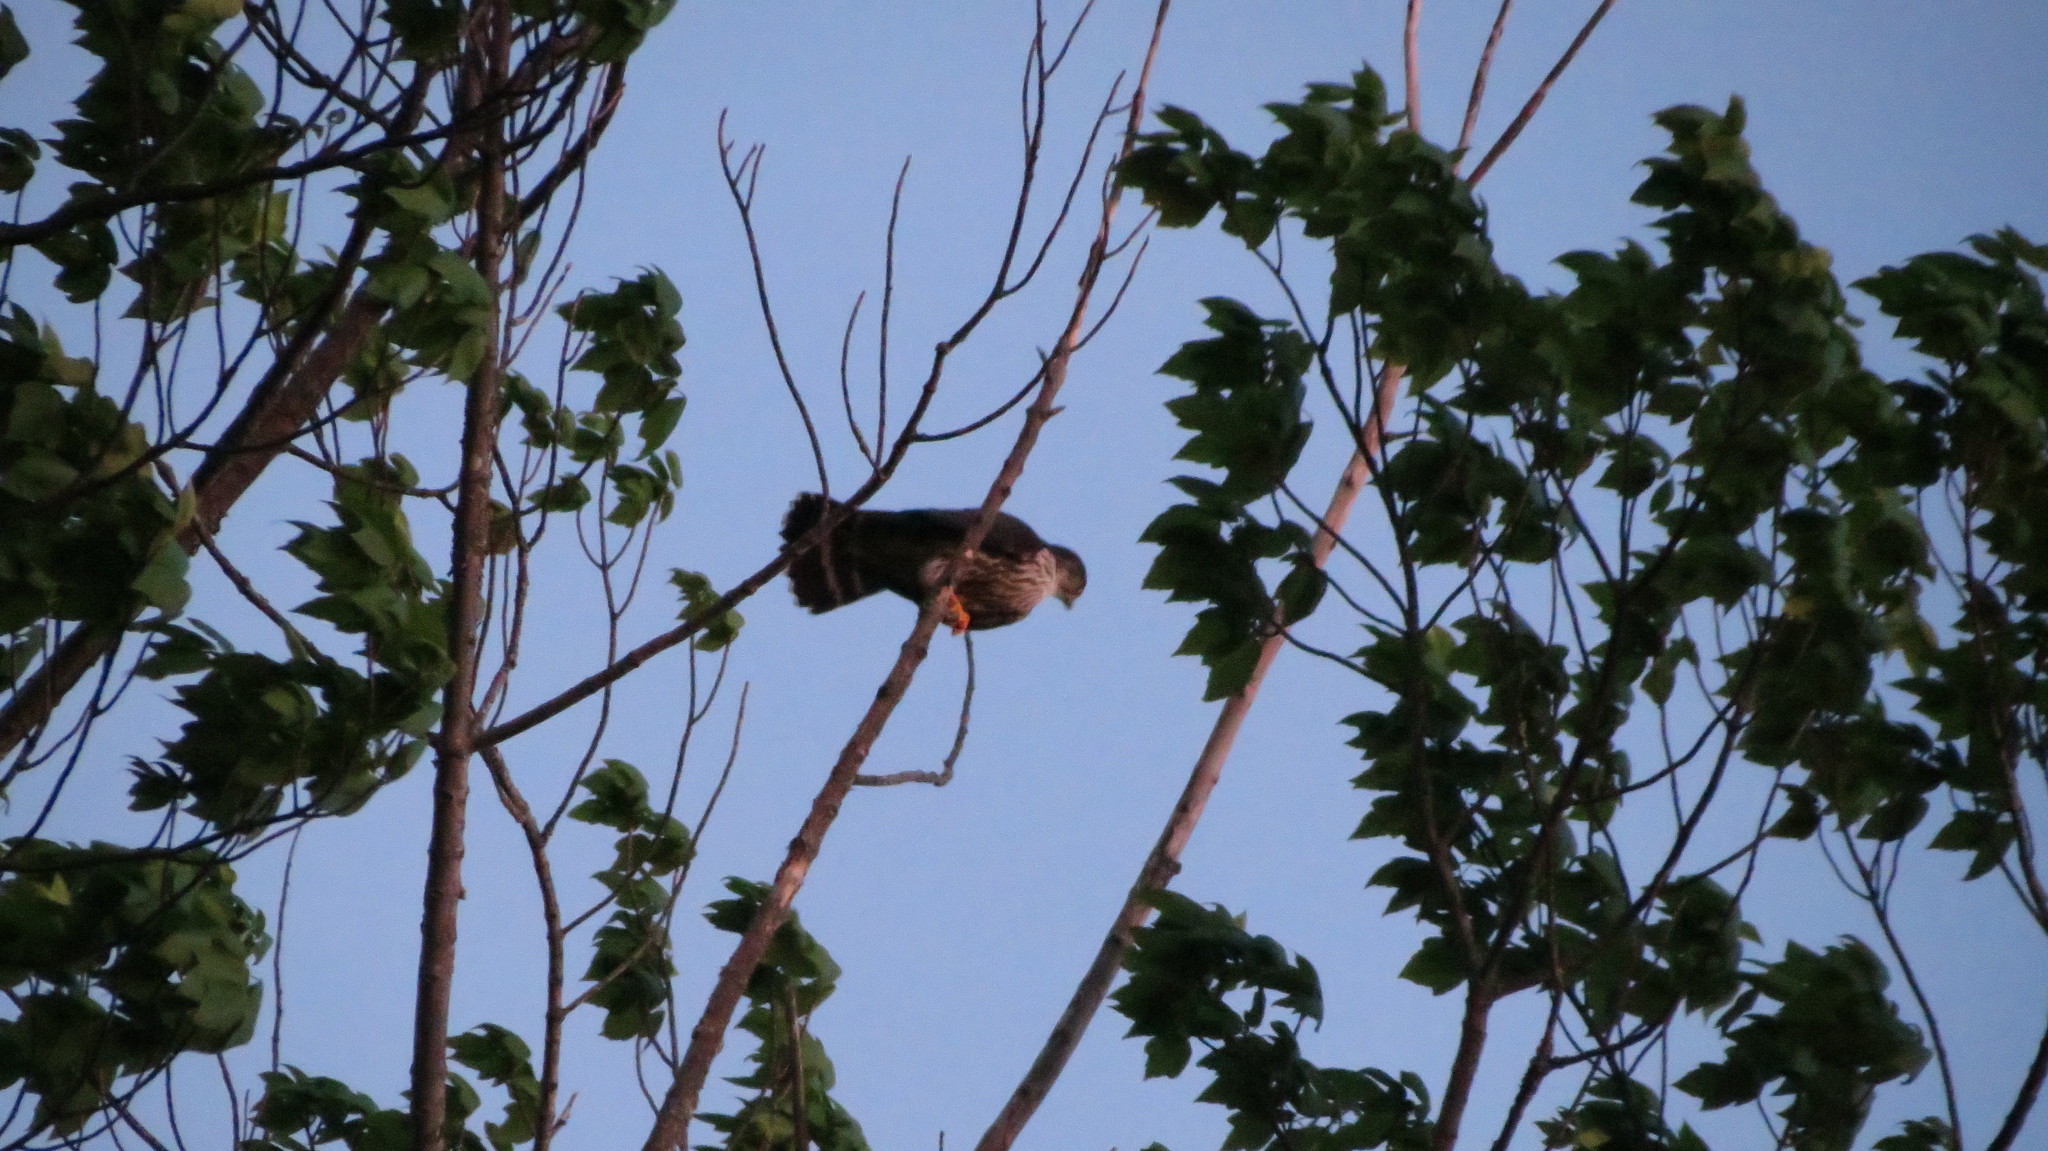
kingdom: Animalia
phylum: Chordata
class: Aves
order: Falconiformes
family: Falconidae
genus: Falco
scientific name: Falco columbarius
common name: Merlin
